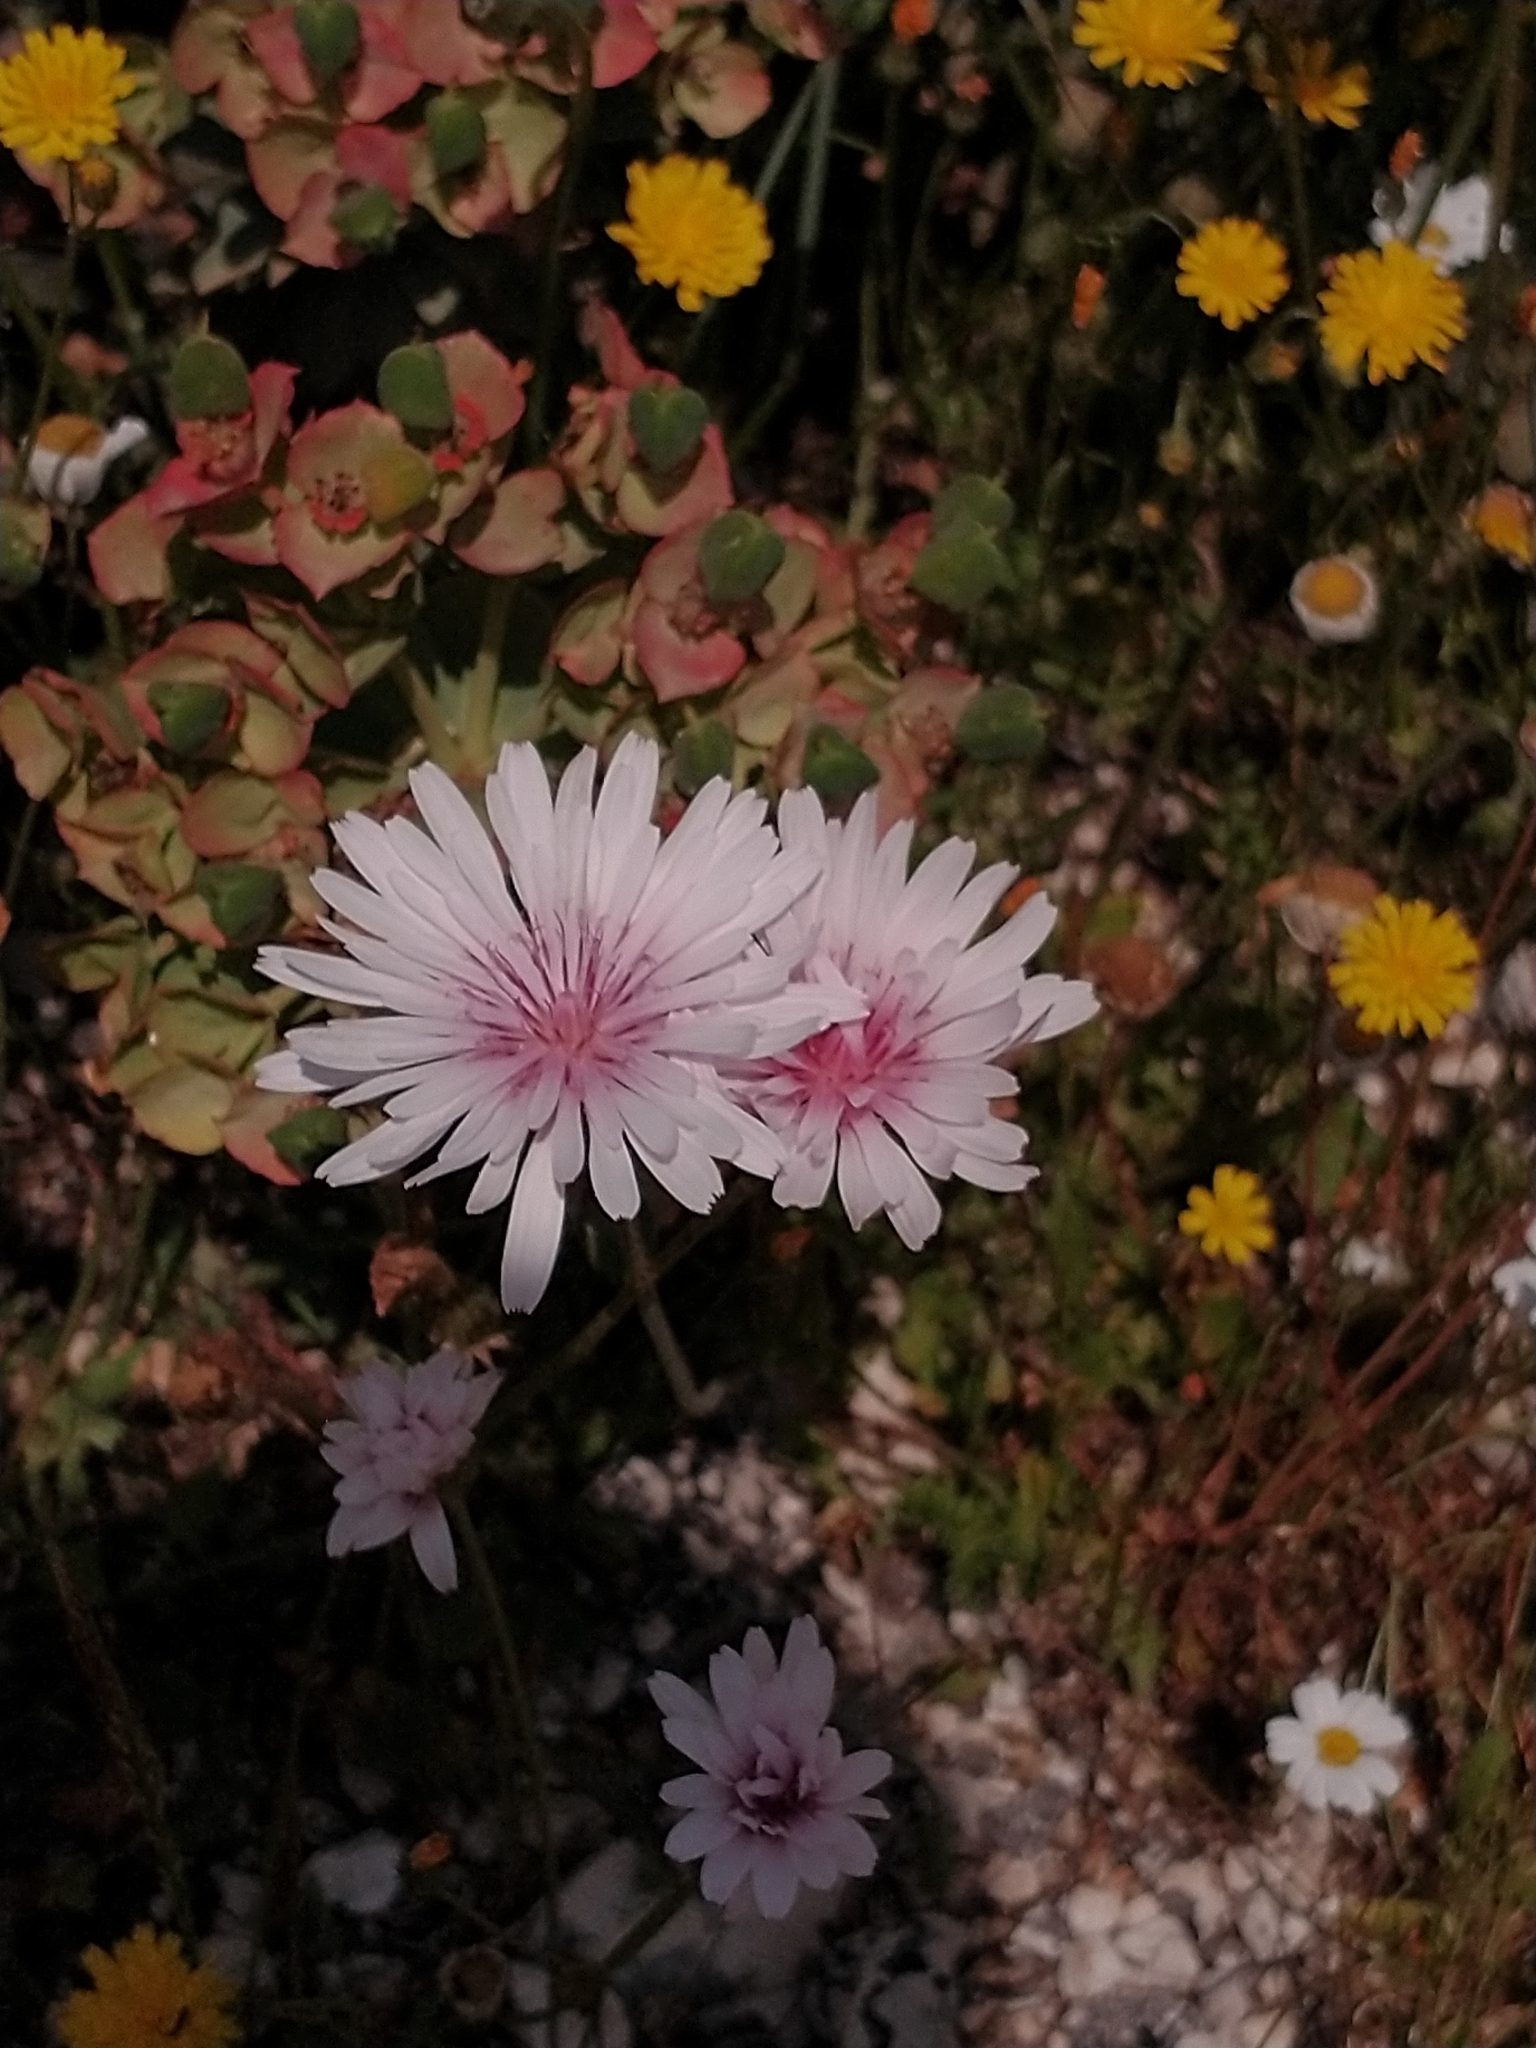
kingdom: Plantae
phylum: Tracheophyta
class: Magnoliopsida
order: Asterales
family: Asteraceae
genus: Crepis
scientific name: Crepis rubra
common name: Pink hawk's-beard
